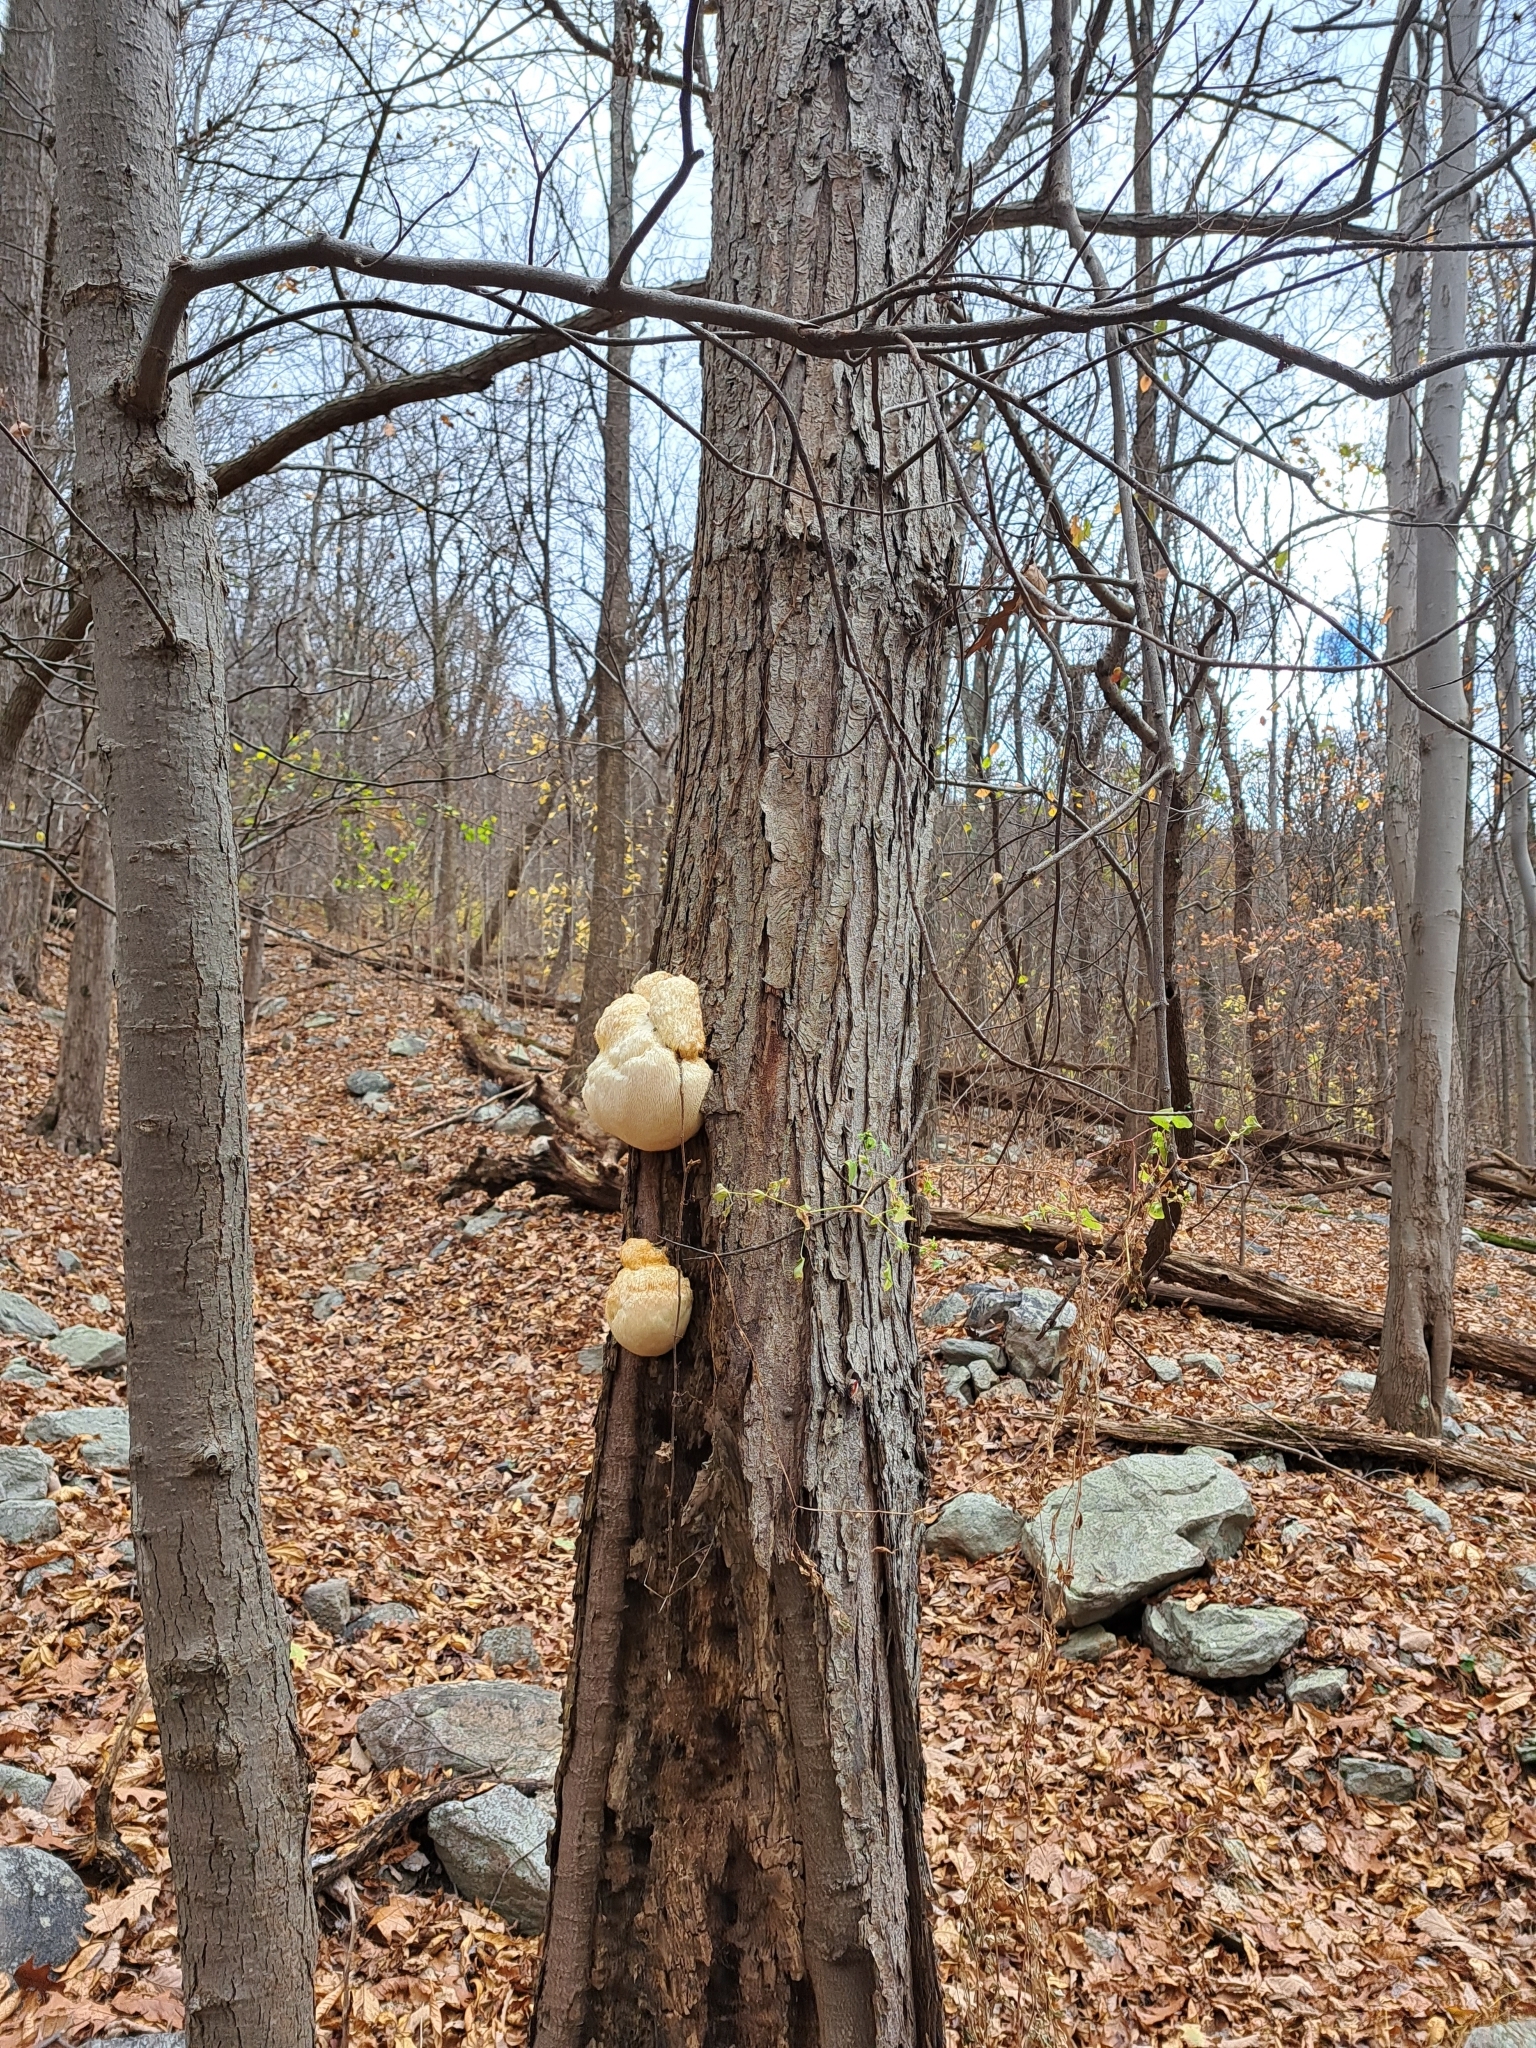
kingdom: Fungi
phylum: Basidiomycota
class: Agaricomycetes
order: Russulales
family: Hericiaceae
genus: Hericium
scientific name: Hericium erinaceus
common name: Bearded tooth
